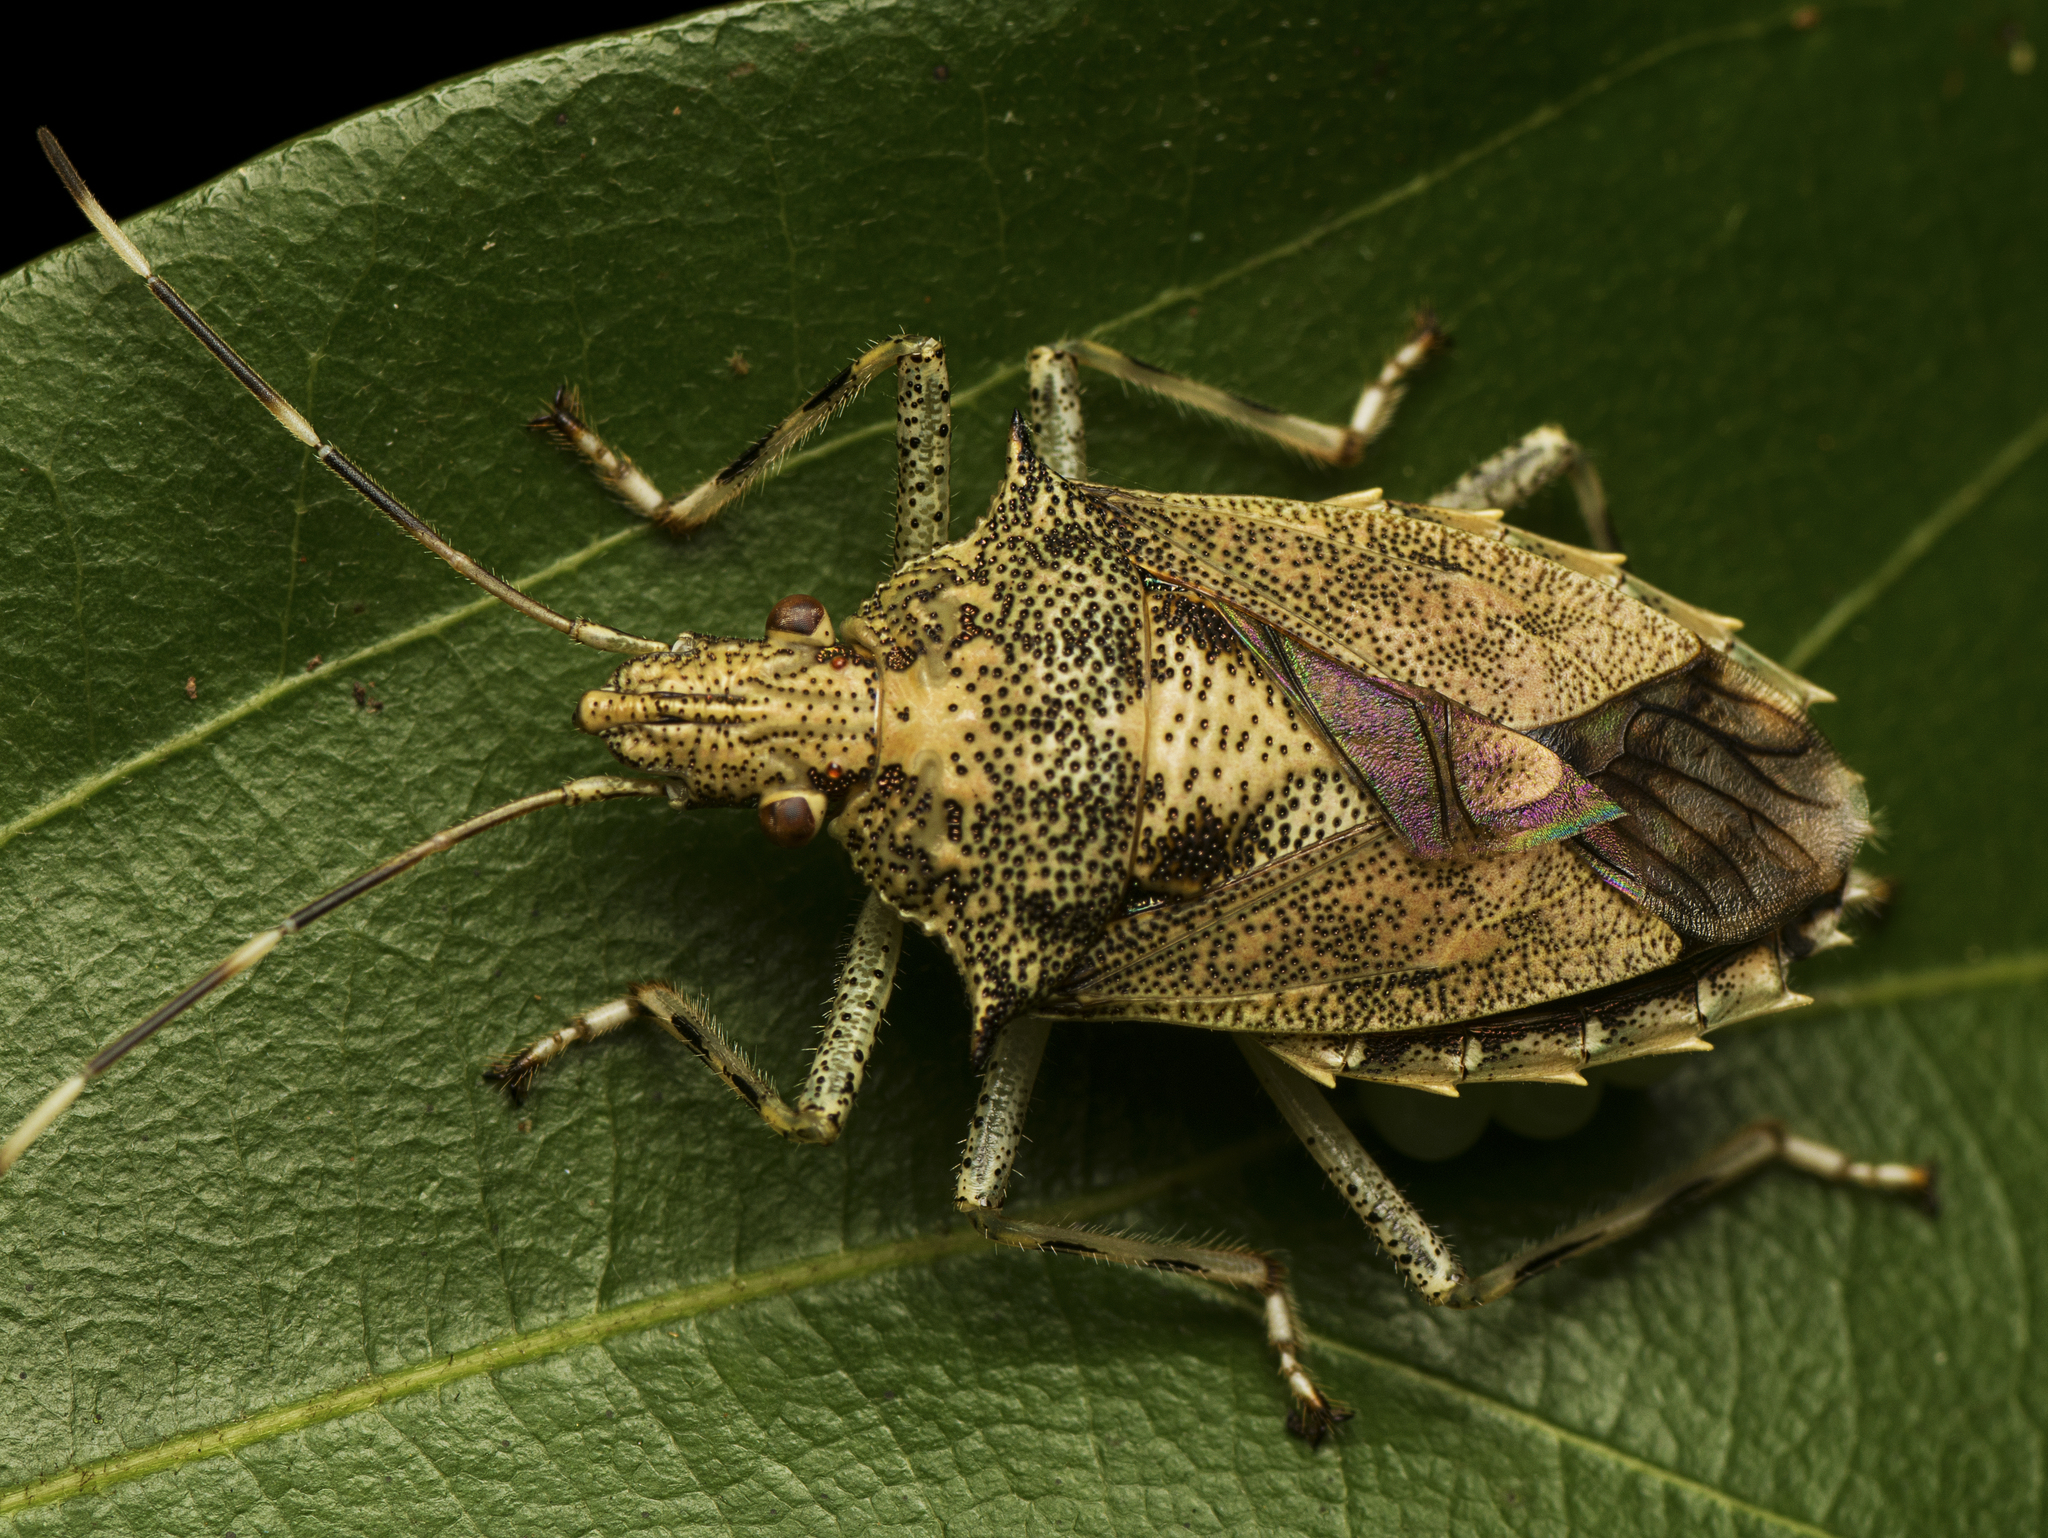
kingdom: Animalia
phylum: Arthropoda
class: Insecta
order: Hemiptera
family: Pentatomidae
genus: Bromocoris
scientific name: Bromocoris
